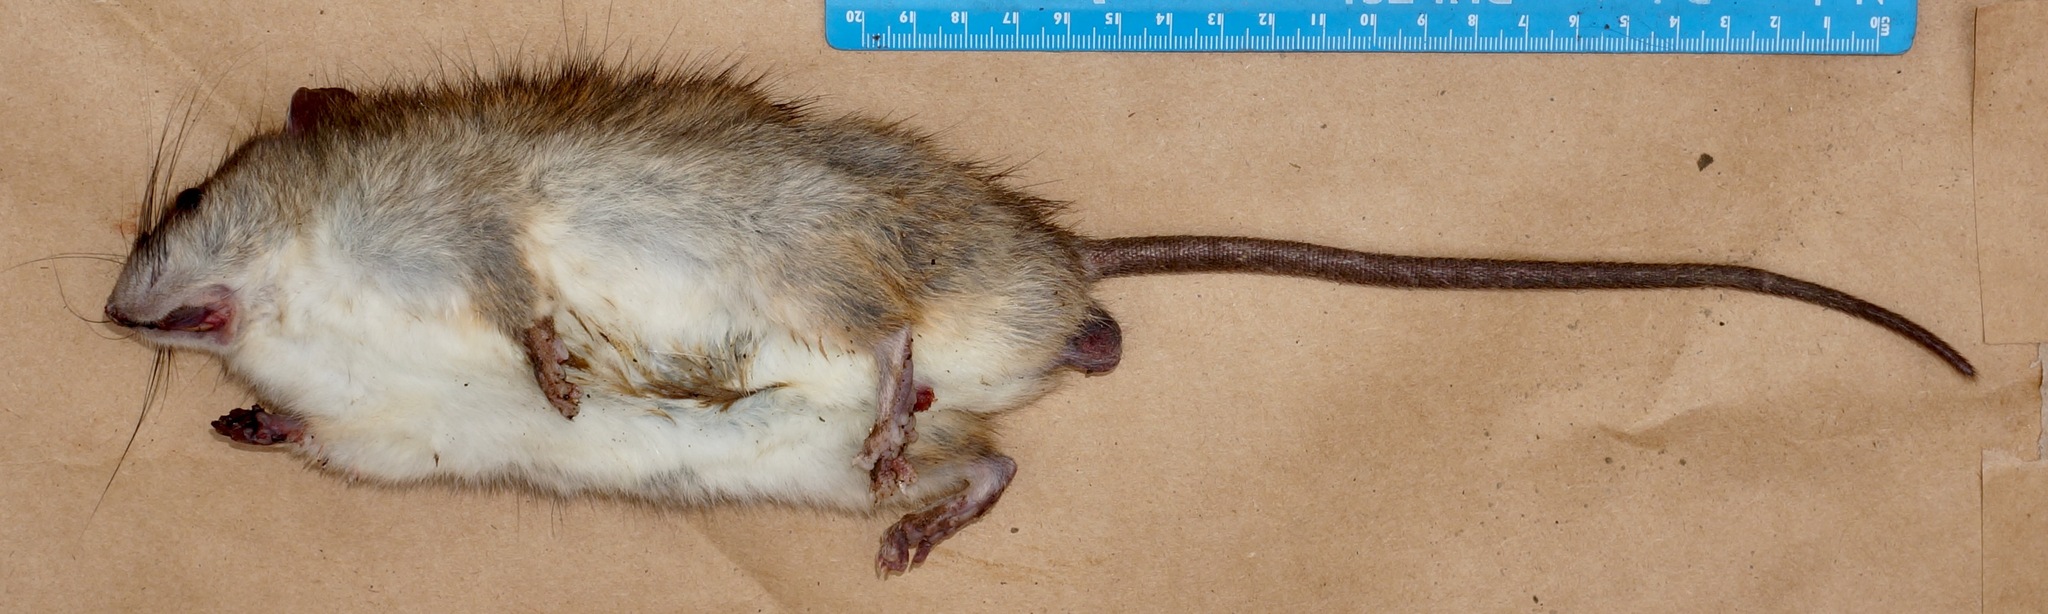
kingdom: Animalia
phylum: Chordata
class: Mammalia
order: Rodentia
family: Muridae
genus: Rattus
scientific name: Rattus rattus
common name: Black rat
